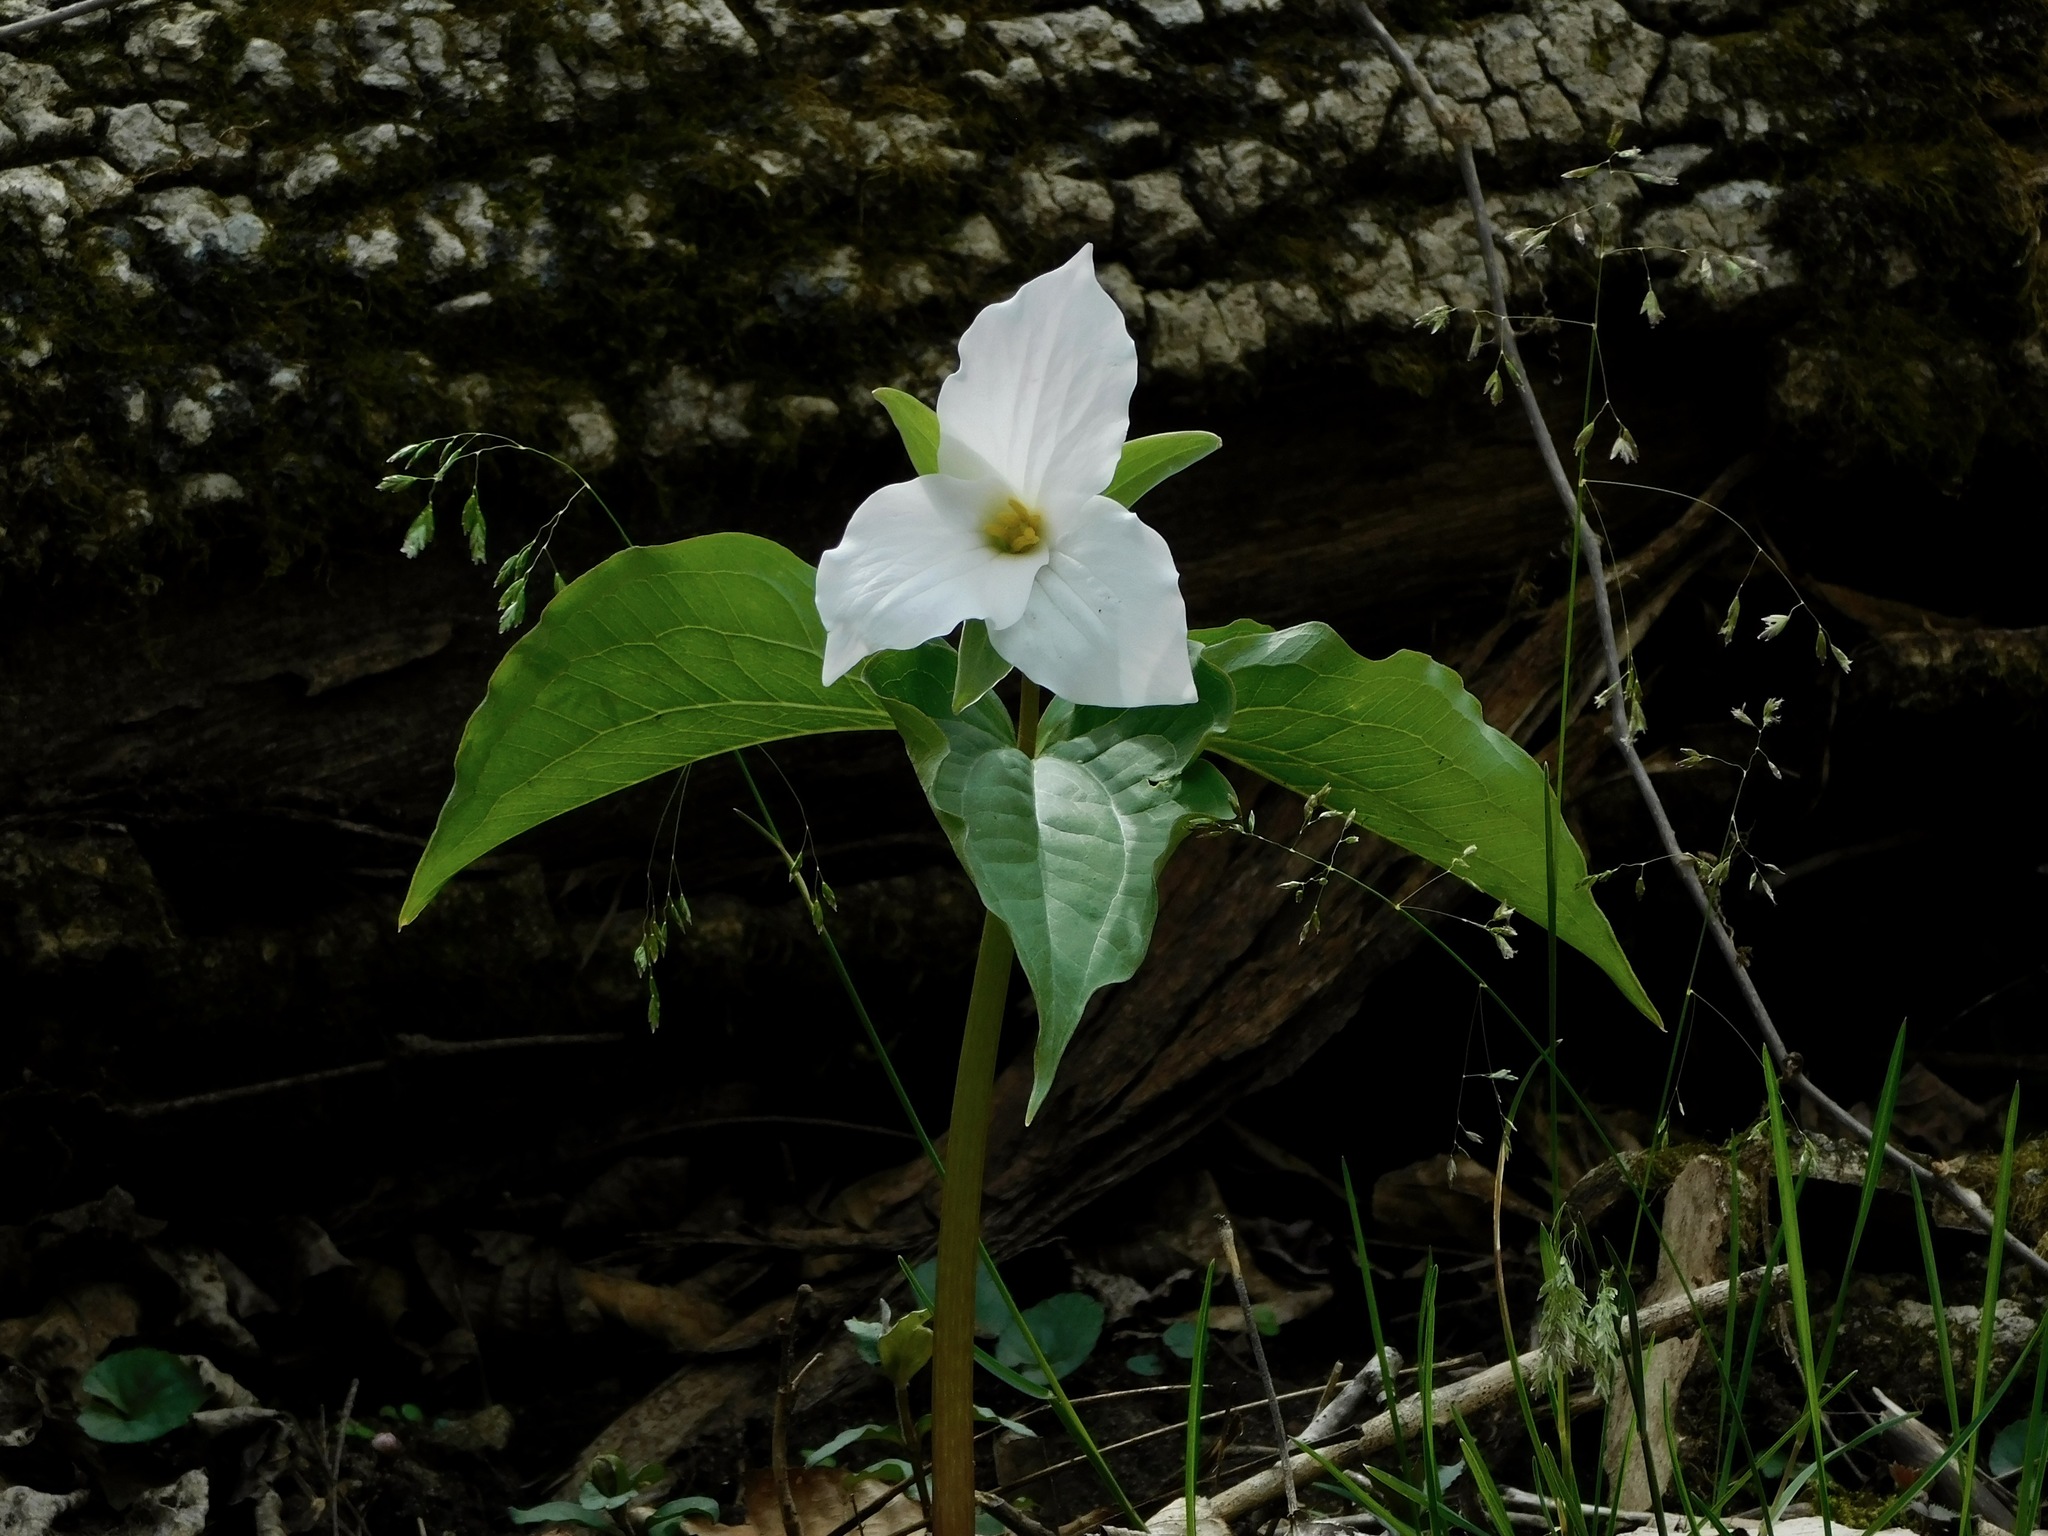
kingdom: Plantae
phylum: Tracheophyta
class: Liliopsida
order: Liliales
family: Melanthiaceae
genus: Trillium
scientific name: Trillium grandiflorum
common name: Great white trillium
